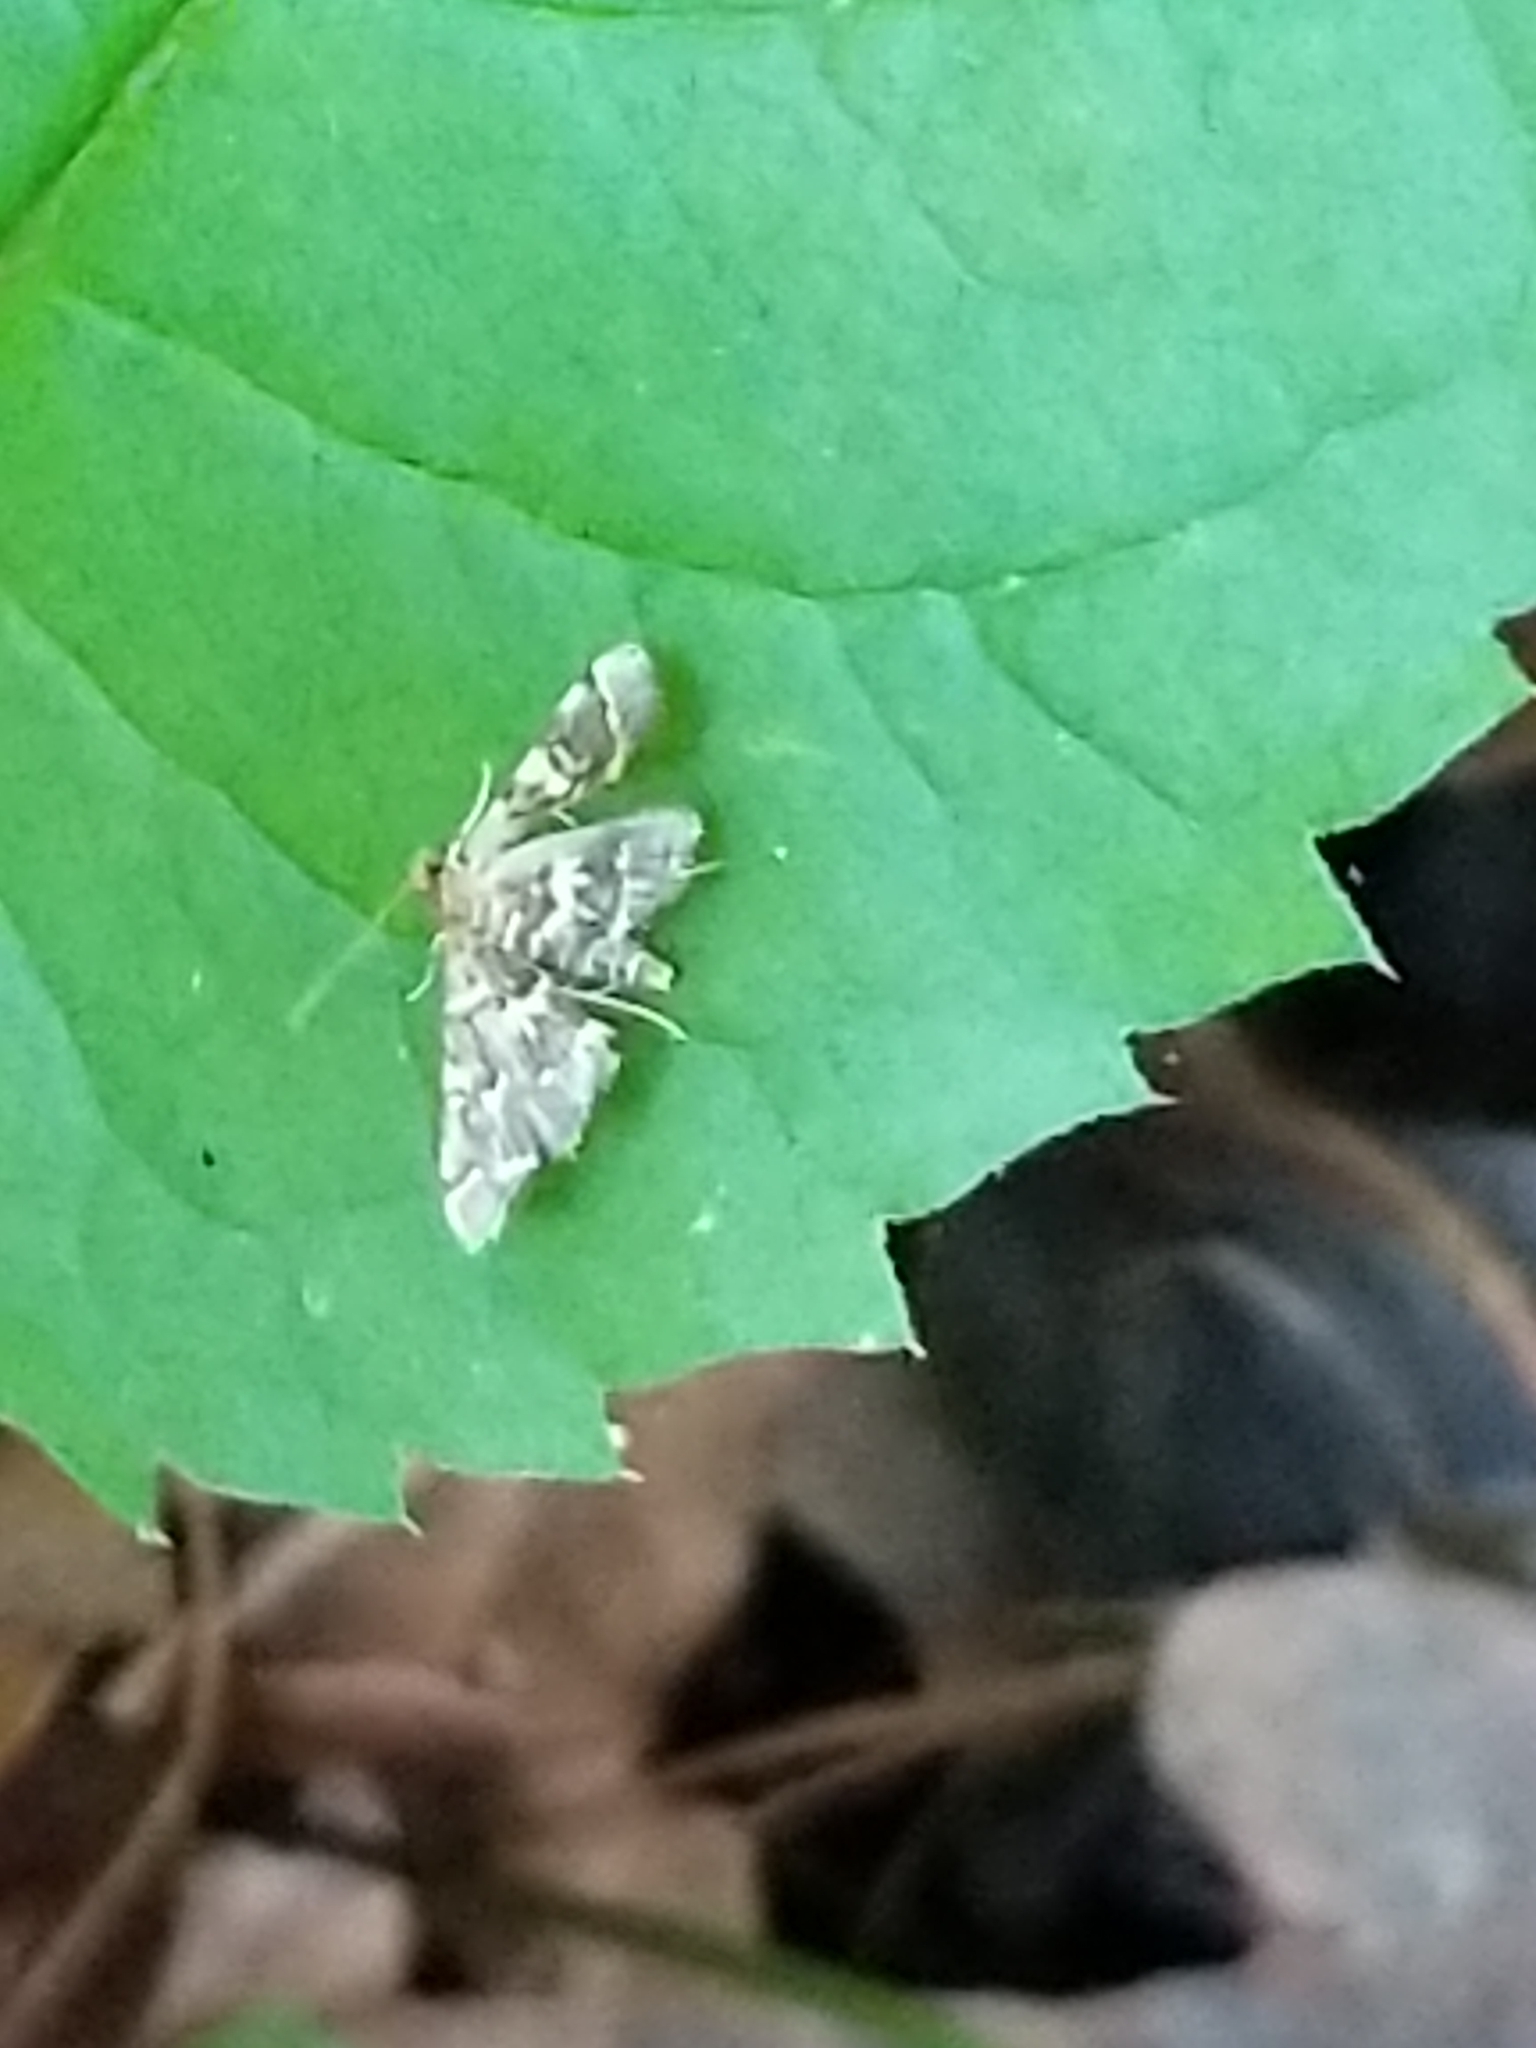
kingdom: Animalia
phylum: Arthropoda
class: Insecta
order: Lepidoptera
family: Crambidae
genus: Anageshna
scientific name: Anageshna primordialis
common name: Yellow-spotted webworm moth
